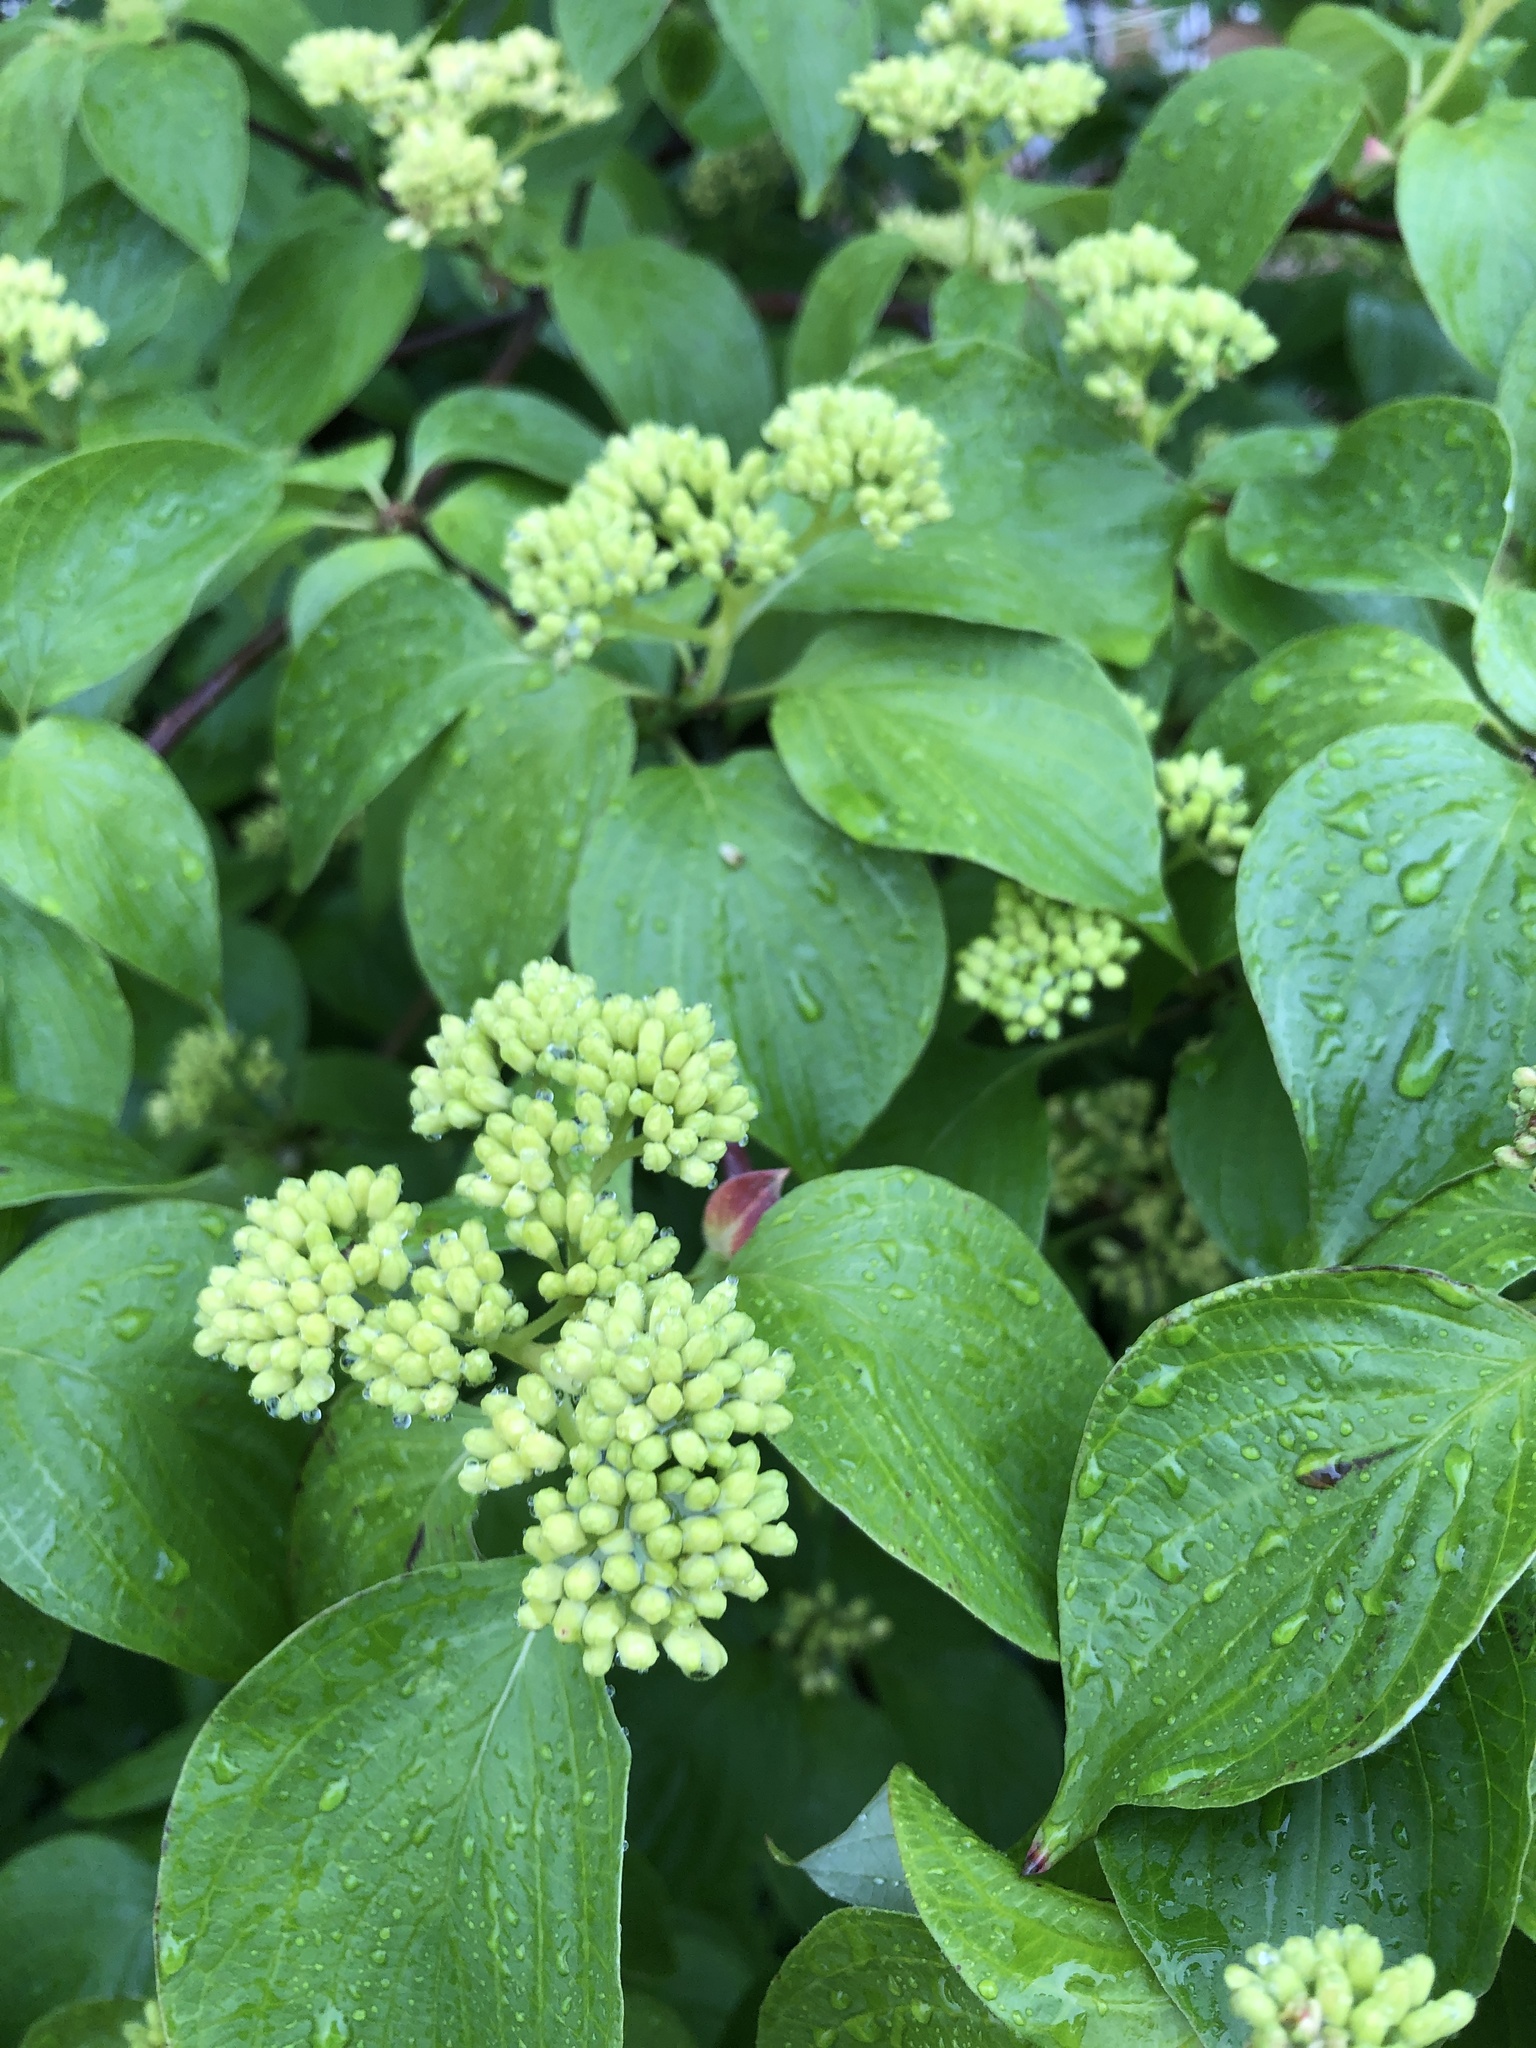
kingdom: Plantae
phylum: Tracheophyta
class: Magnoliopsida
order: Cornales
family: Cornaceae
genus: Cornus
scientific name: Cornus alternifolia
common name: Pagoda dogwood
